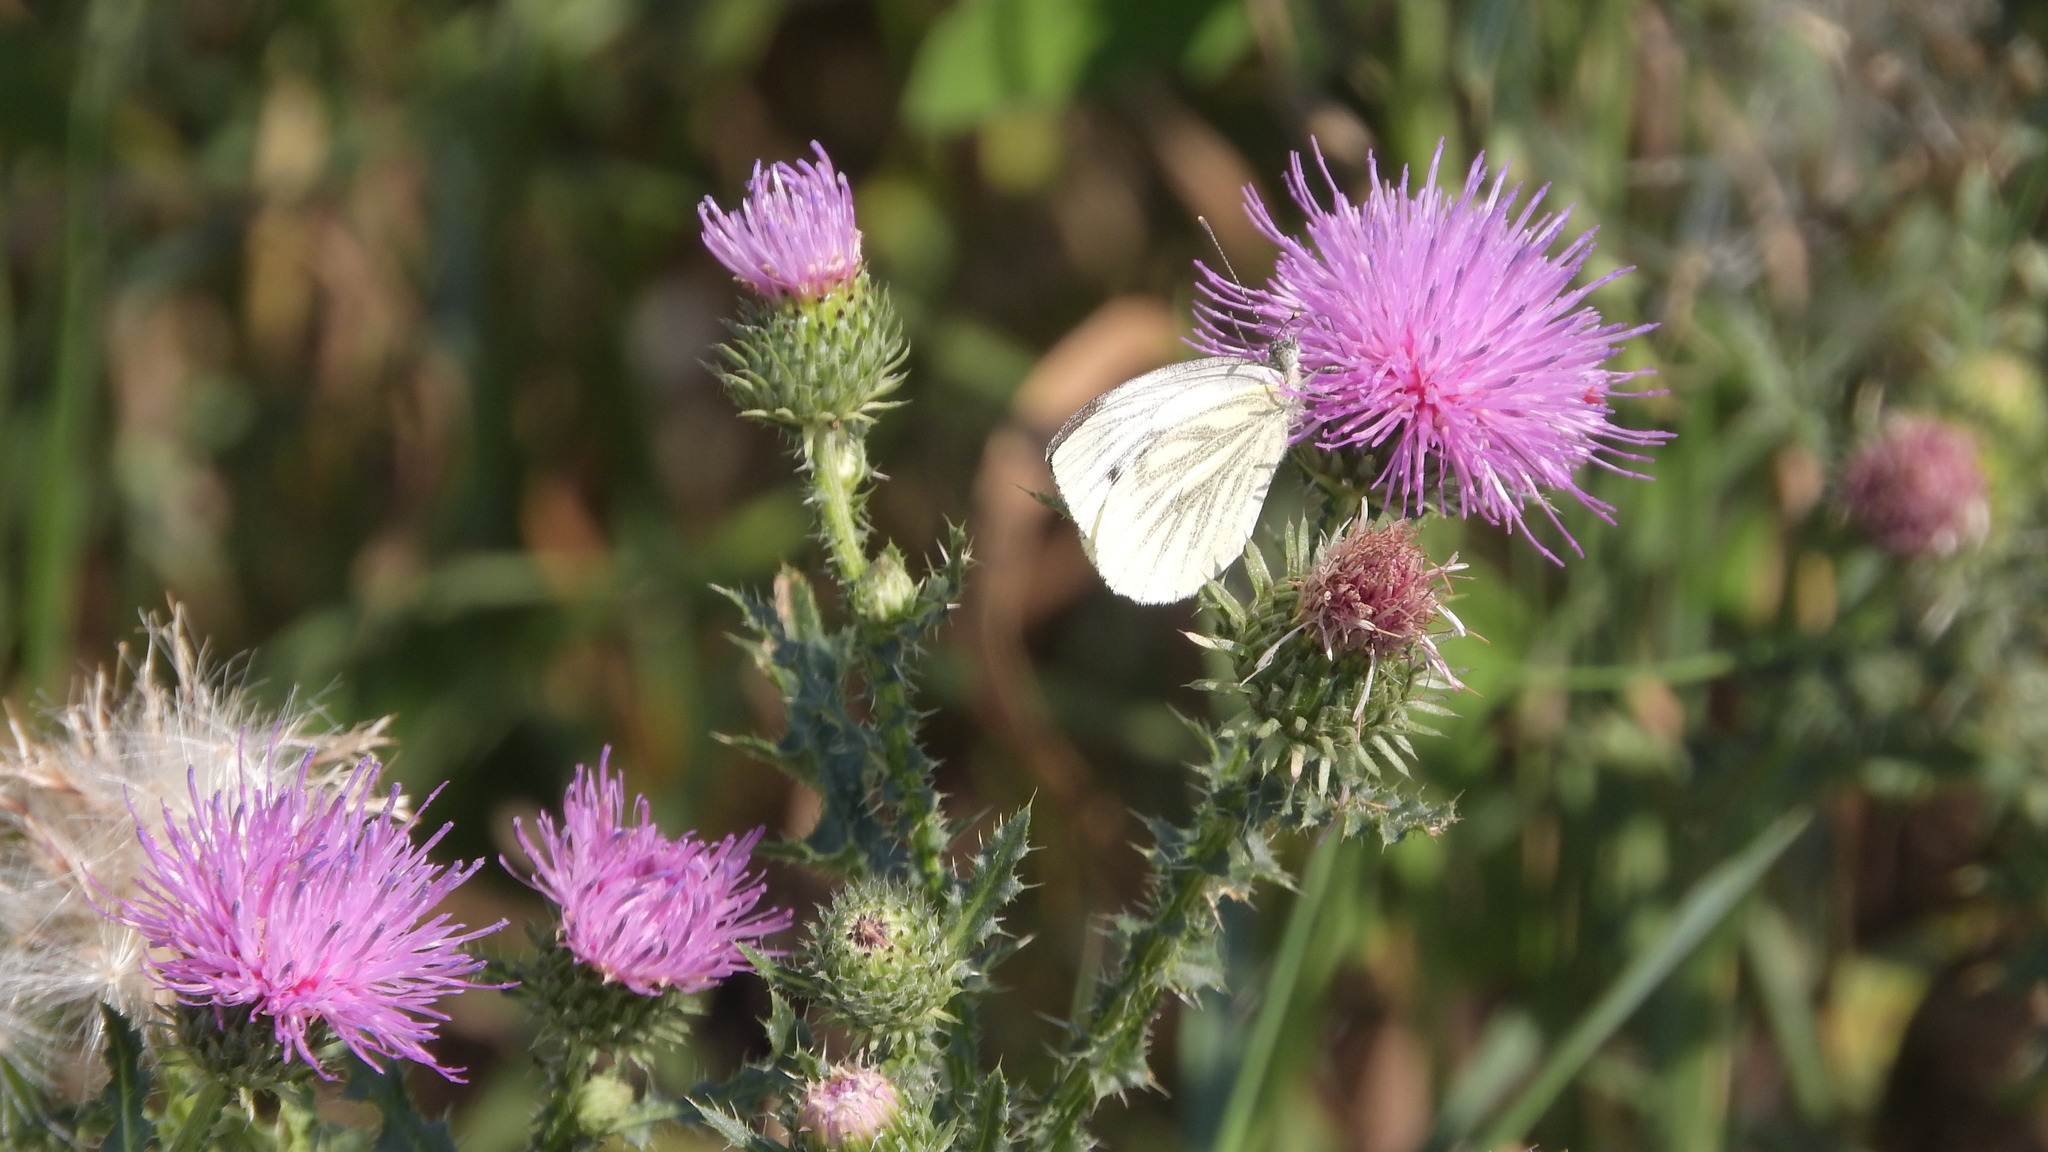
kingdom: Animalia
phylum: Arthropoda
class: Insecta
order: Lepidoptera
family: Pieridae
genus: Pieris
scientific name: Pieris napi
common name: Green-veined white
